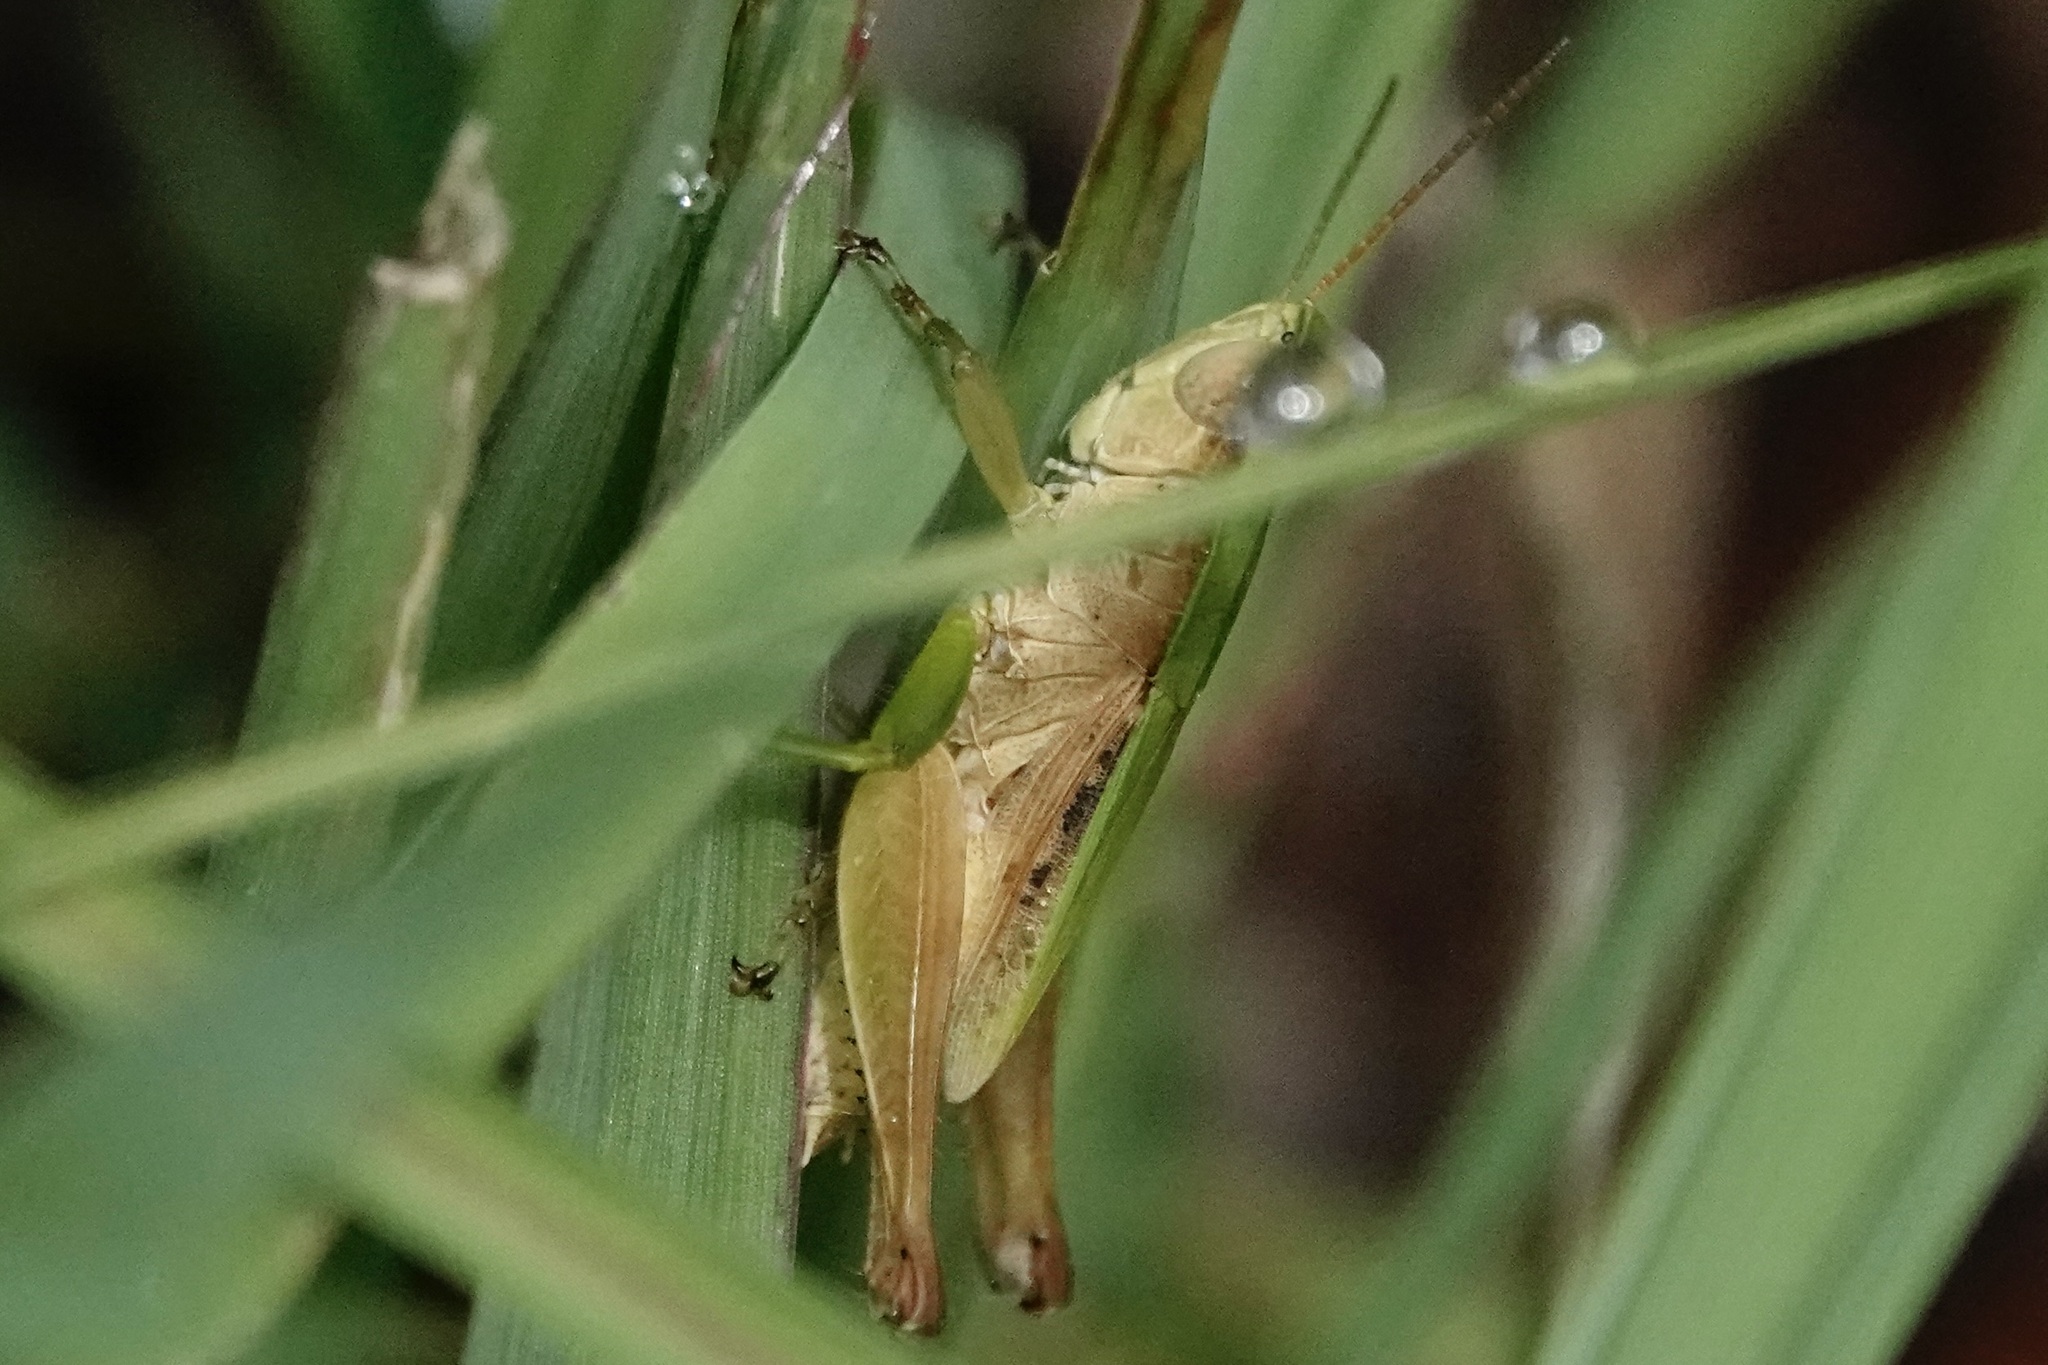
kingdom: Animalia
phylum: Arthropoda
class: Insecta
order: Orthoptera
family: Acrididae
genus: Dichromorpha
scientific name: Dichromorpha viridis
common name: Short-winged green grasshopper
